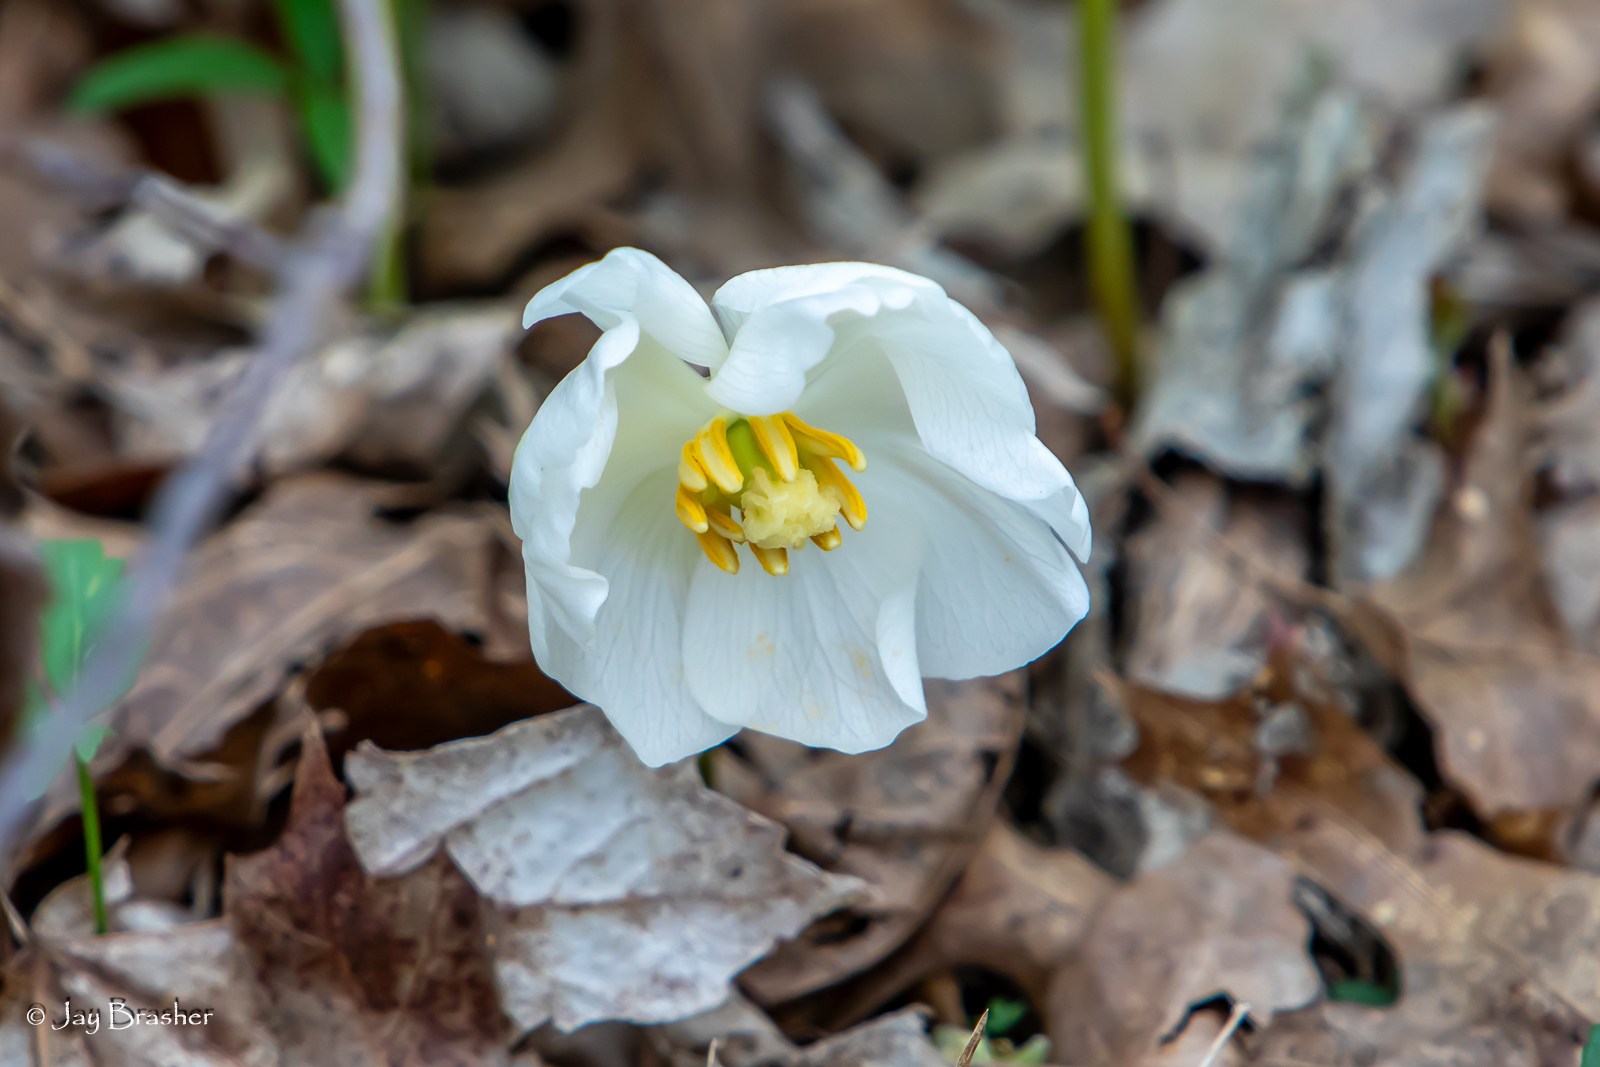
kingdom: Plantae
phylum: Tracheophyta
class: Magnoliopsida
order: Ranunculales
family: Berberidaceae
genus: Podophyllum
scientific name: Podophyllum peltatum
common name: Wild mandrake
